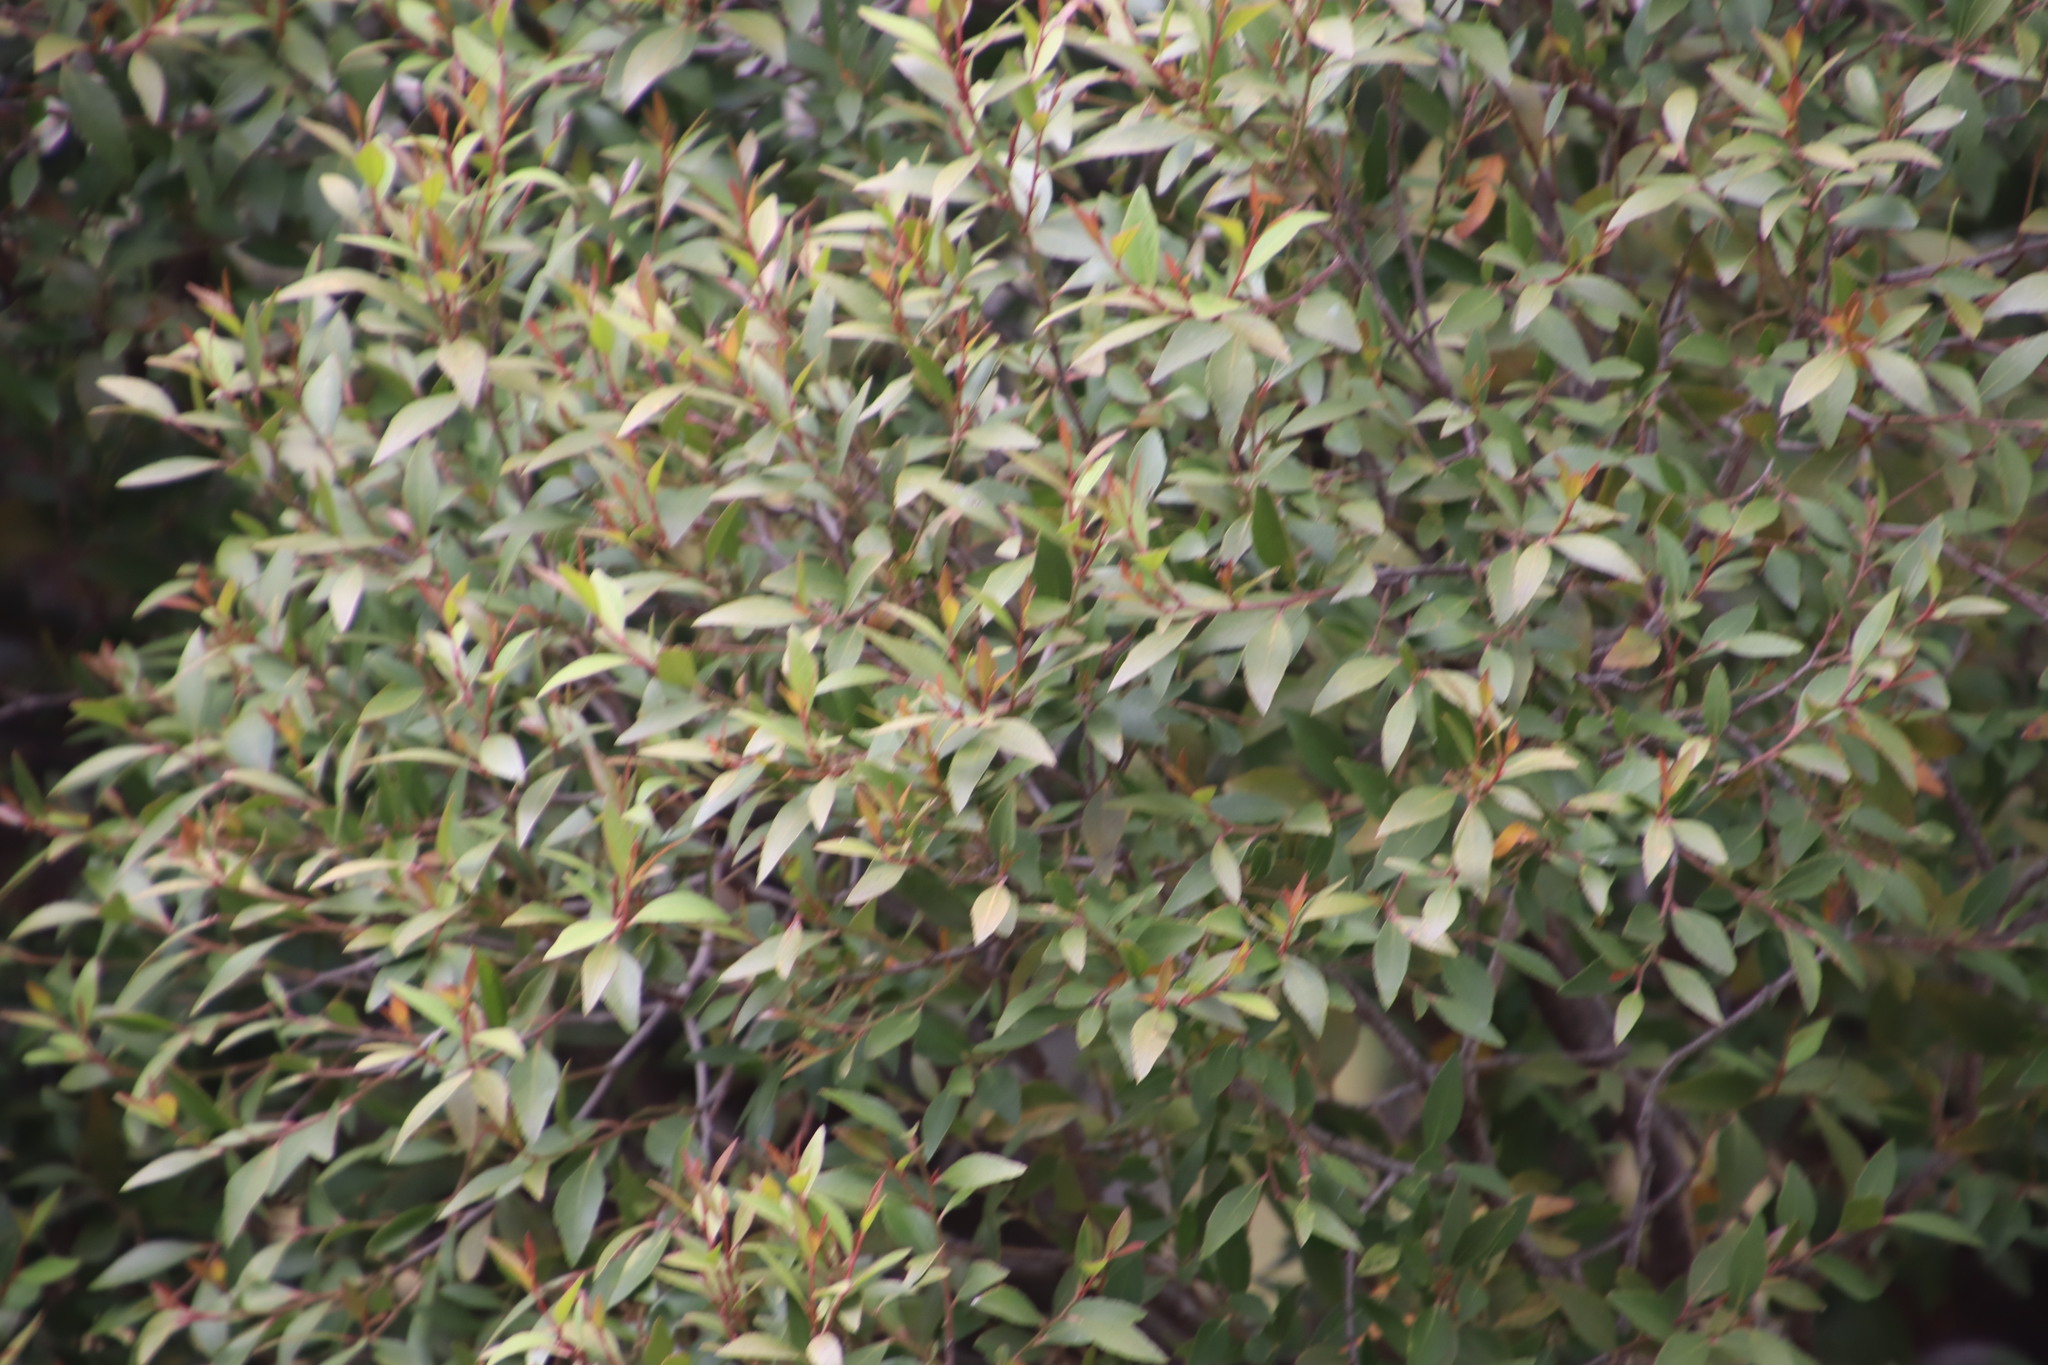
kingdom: Plantae
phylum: Tracheophyta
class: Magnoliopsida
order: Celastrales
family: Celastraceae
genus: Gymnosporia
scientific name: Gymnosporia acuminata
